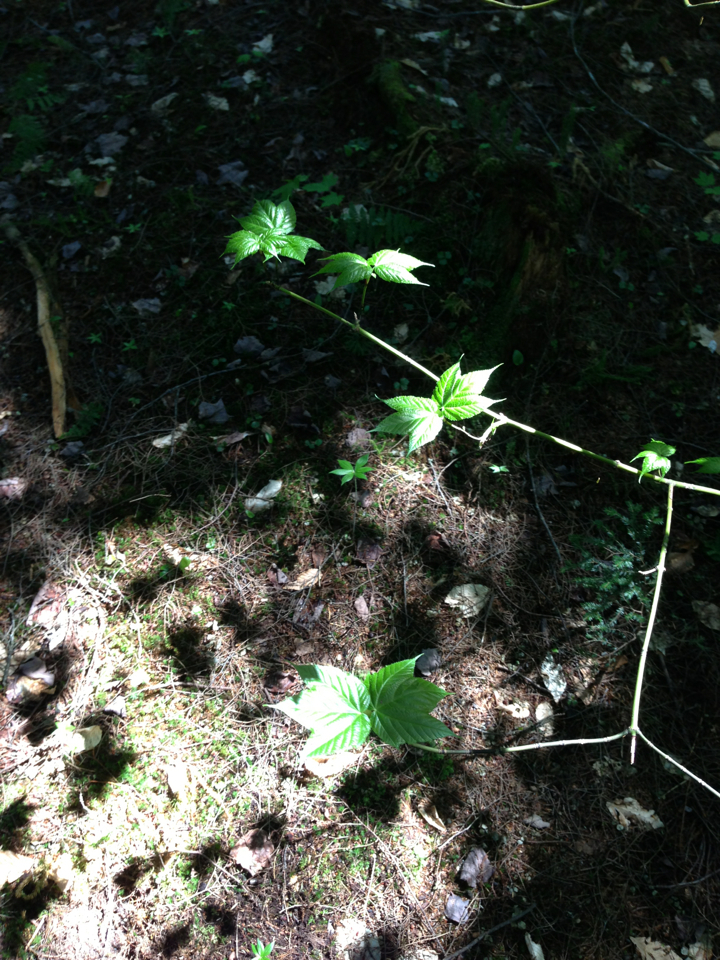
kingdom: Plantae
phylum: Tracheophyta
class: Magnoliopsida
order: Sapindales
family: Sapindaceae
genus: Acer
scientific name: Acer pensylvanicum
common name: Moosewood
